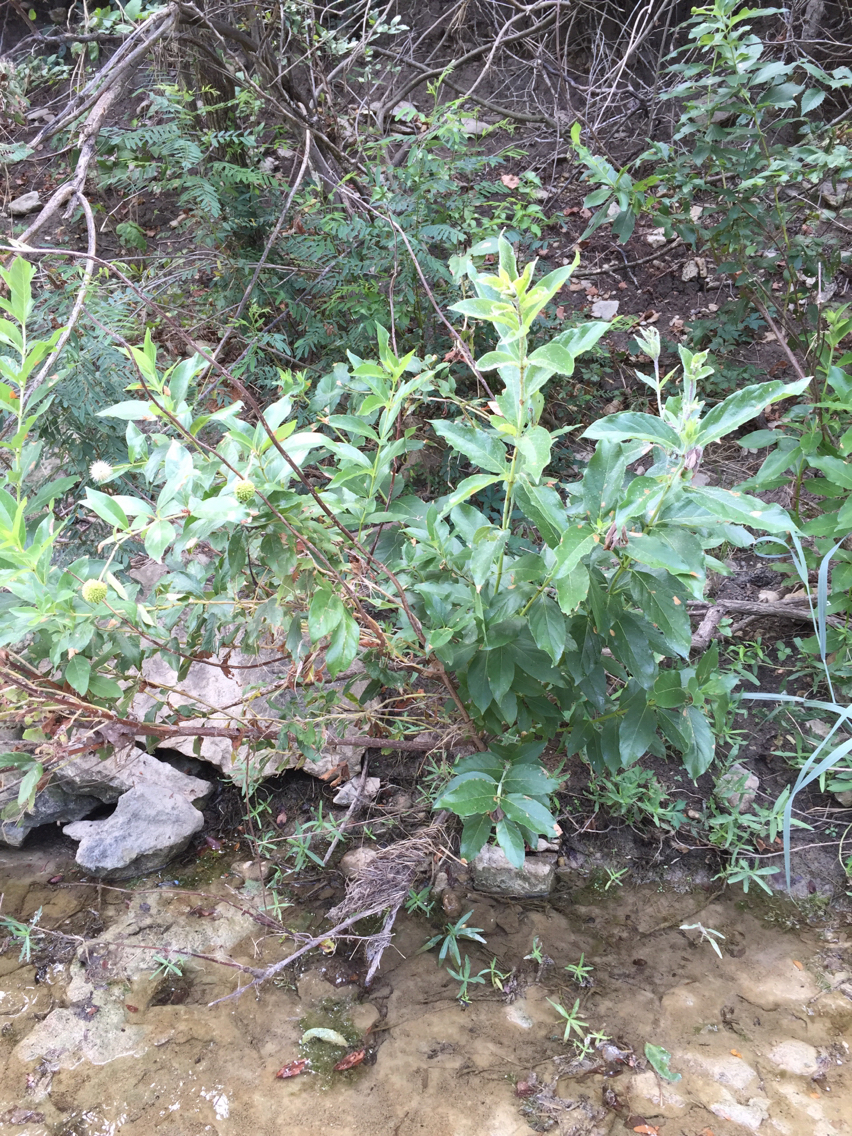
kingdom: Plantae
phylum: Tracheophyta
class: Magnoliopsida
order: Gentianales
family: Rubiaceae
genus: Cephalanthus
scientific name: Cephalanthus occidentalis
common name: Button-willow
